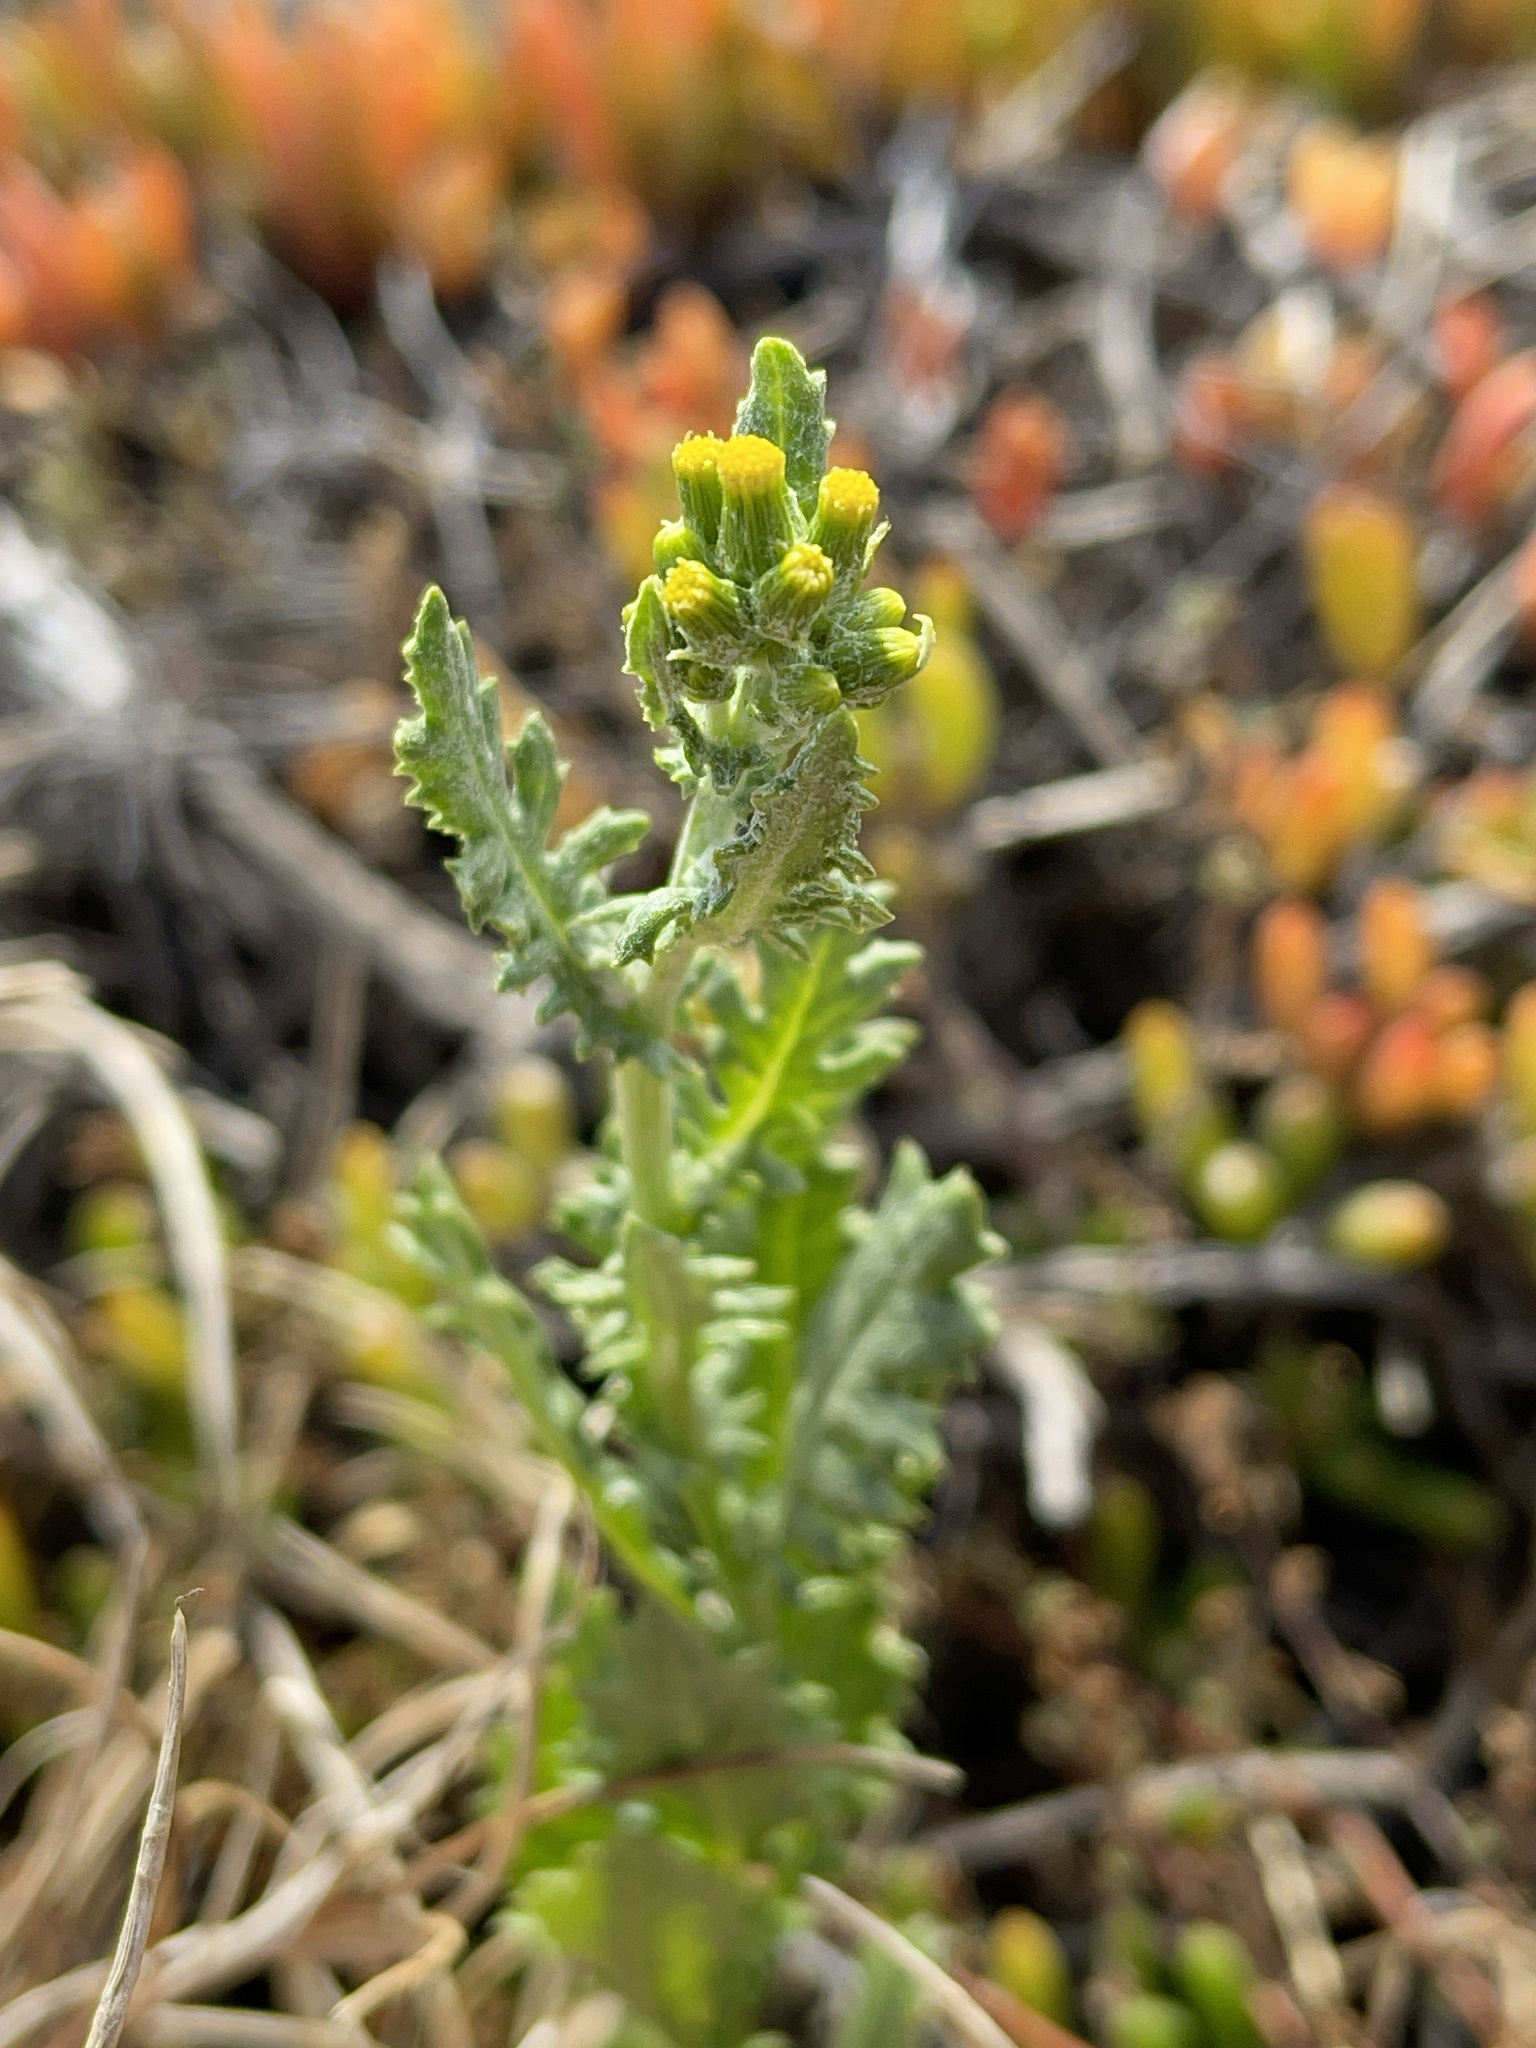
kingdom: Plantae
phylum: Tracheophyta
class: Magnoliopsida
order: Asterales
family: Asteraceae
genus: Senecio
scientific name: Senecio glomeratus
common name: Cutleaf burnweed
